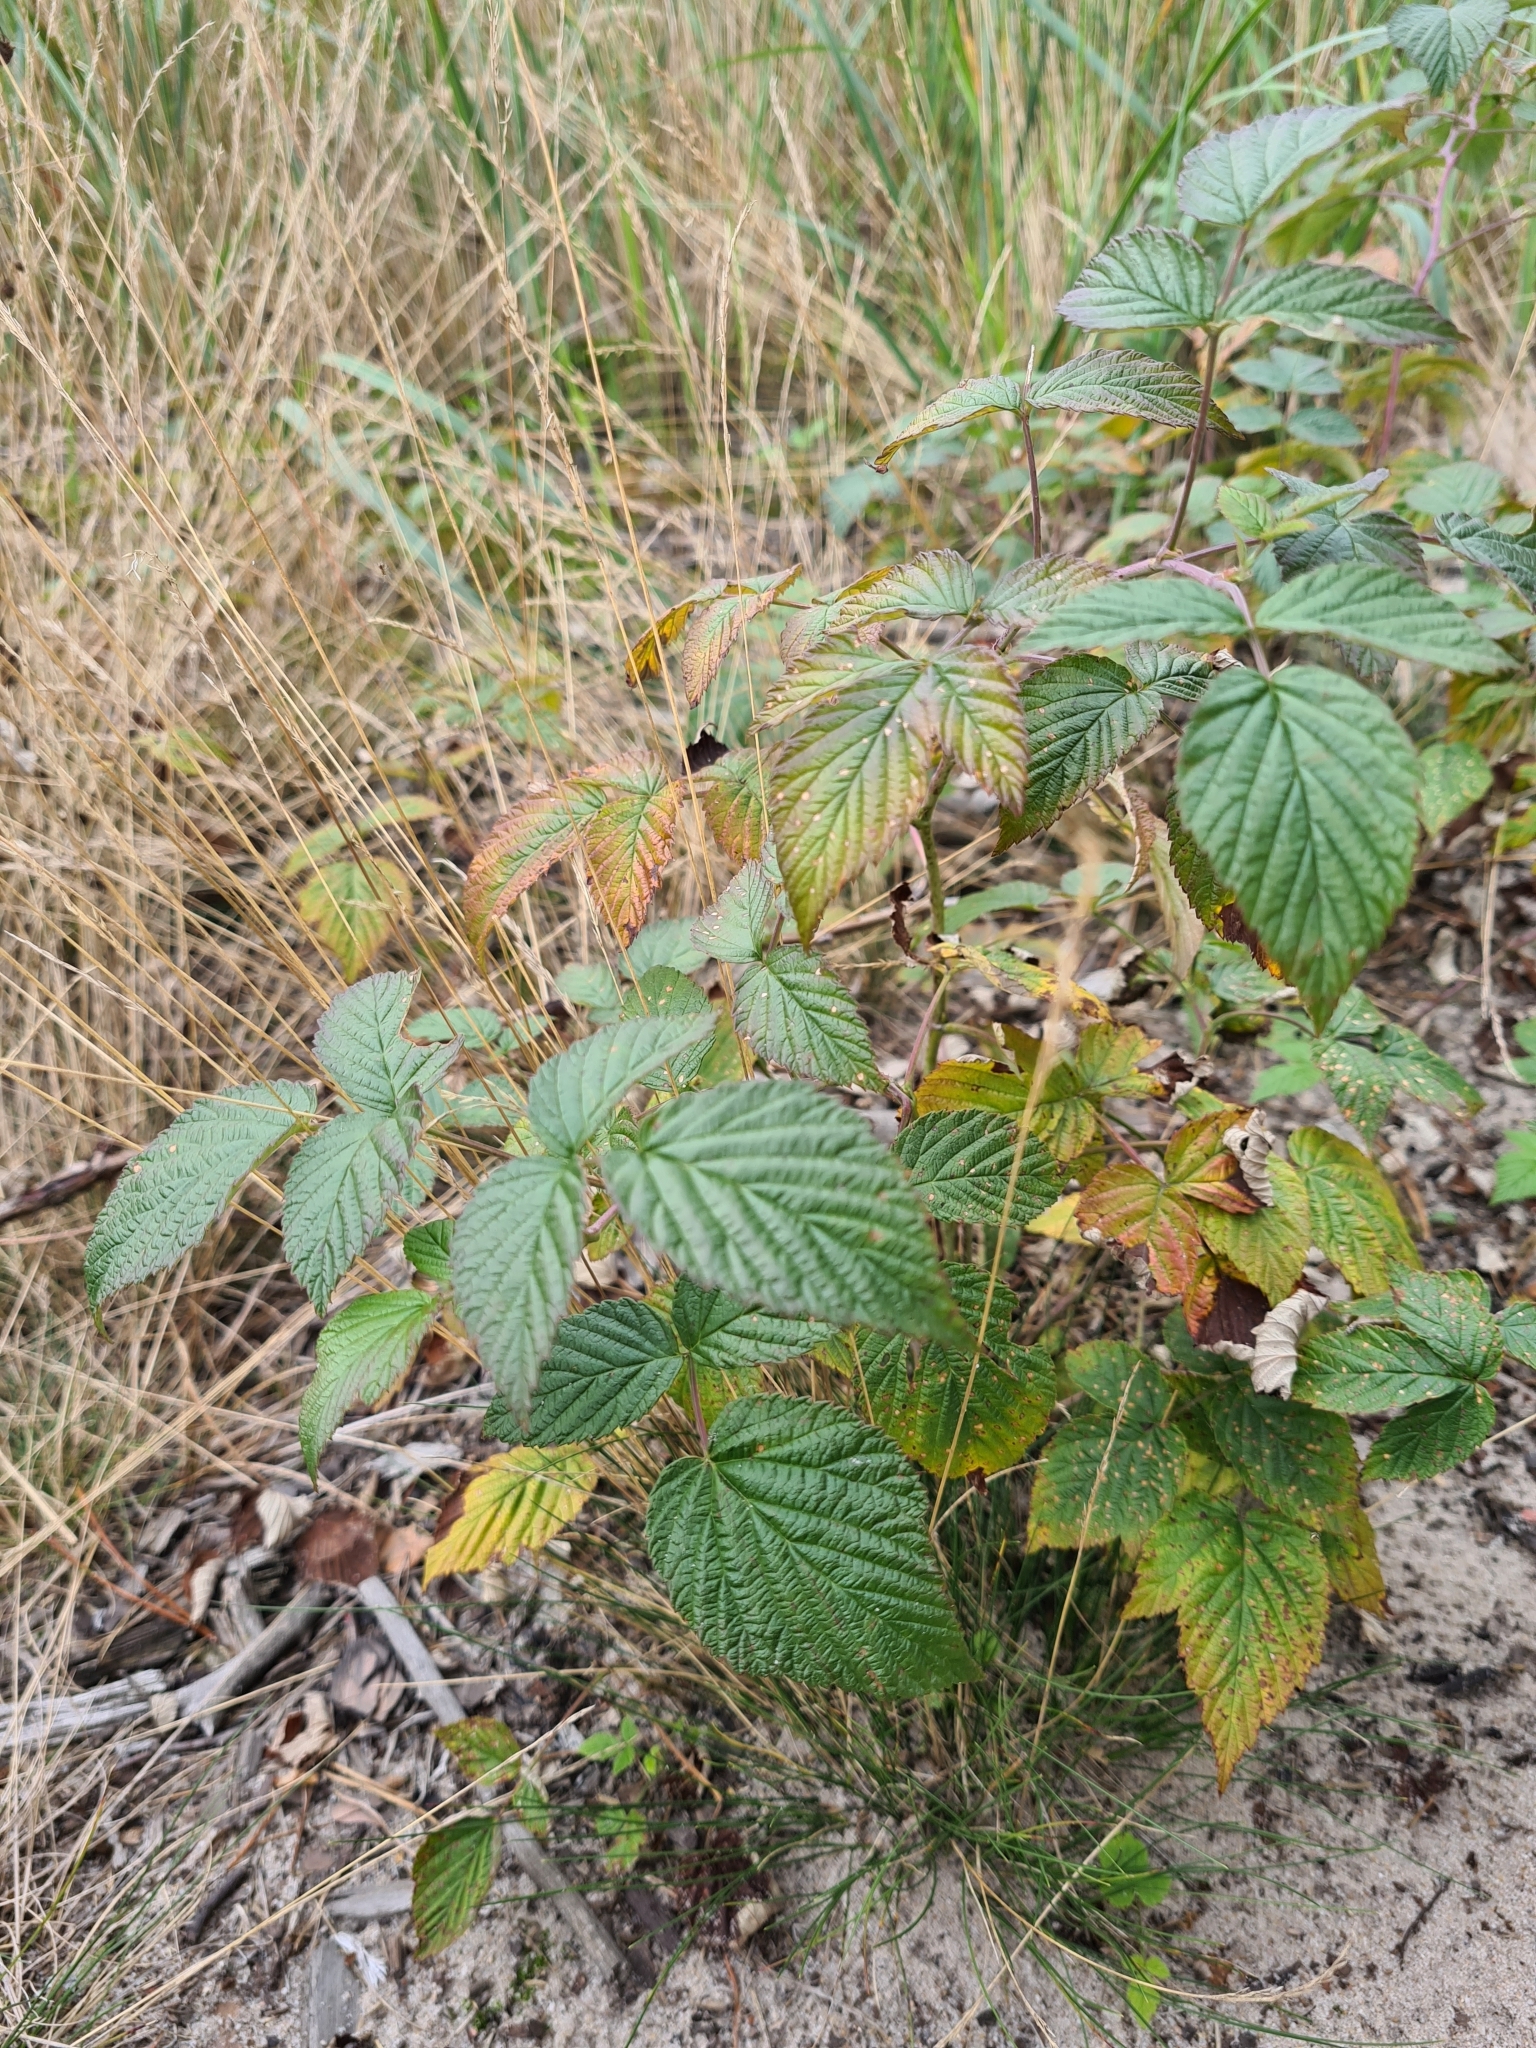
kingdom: Plantae
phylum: Tracheophyta
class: Magnoliopsida
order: Rosales
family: Rosaceae
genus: Rubus
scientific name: Rubus idaeus
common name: Raspberry
